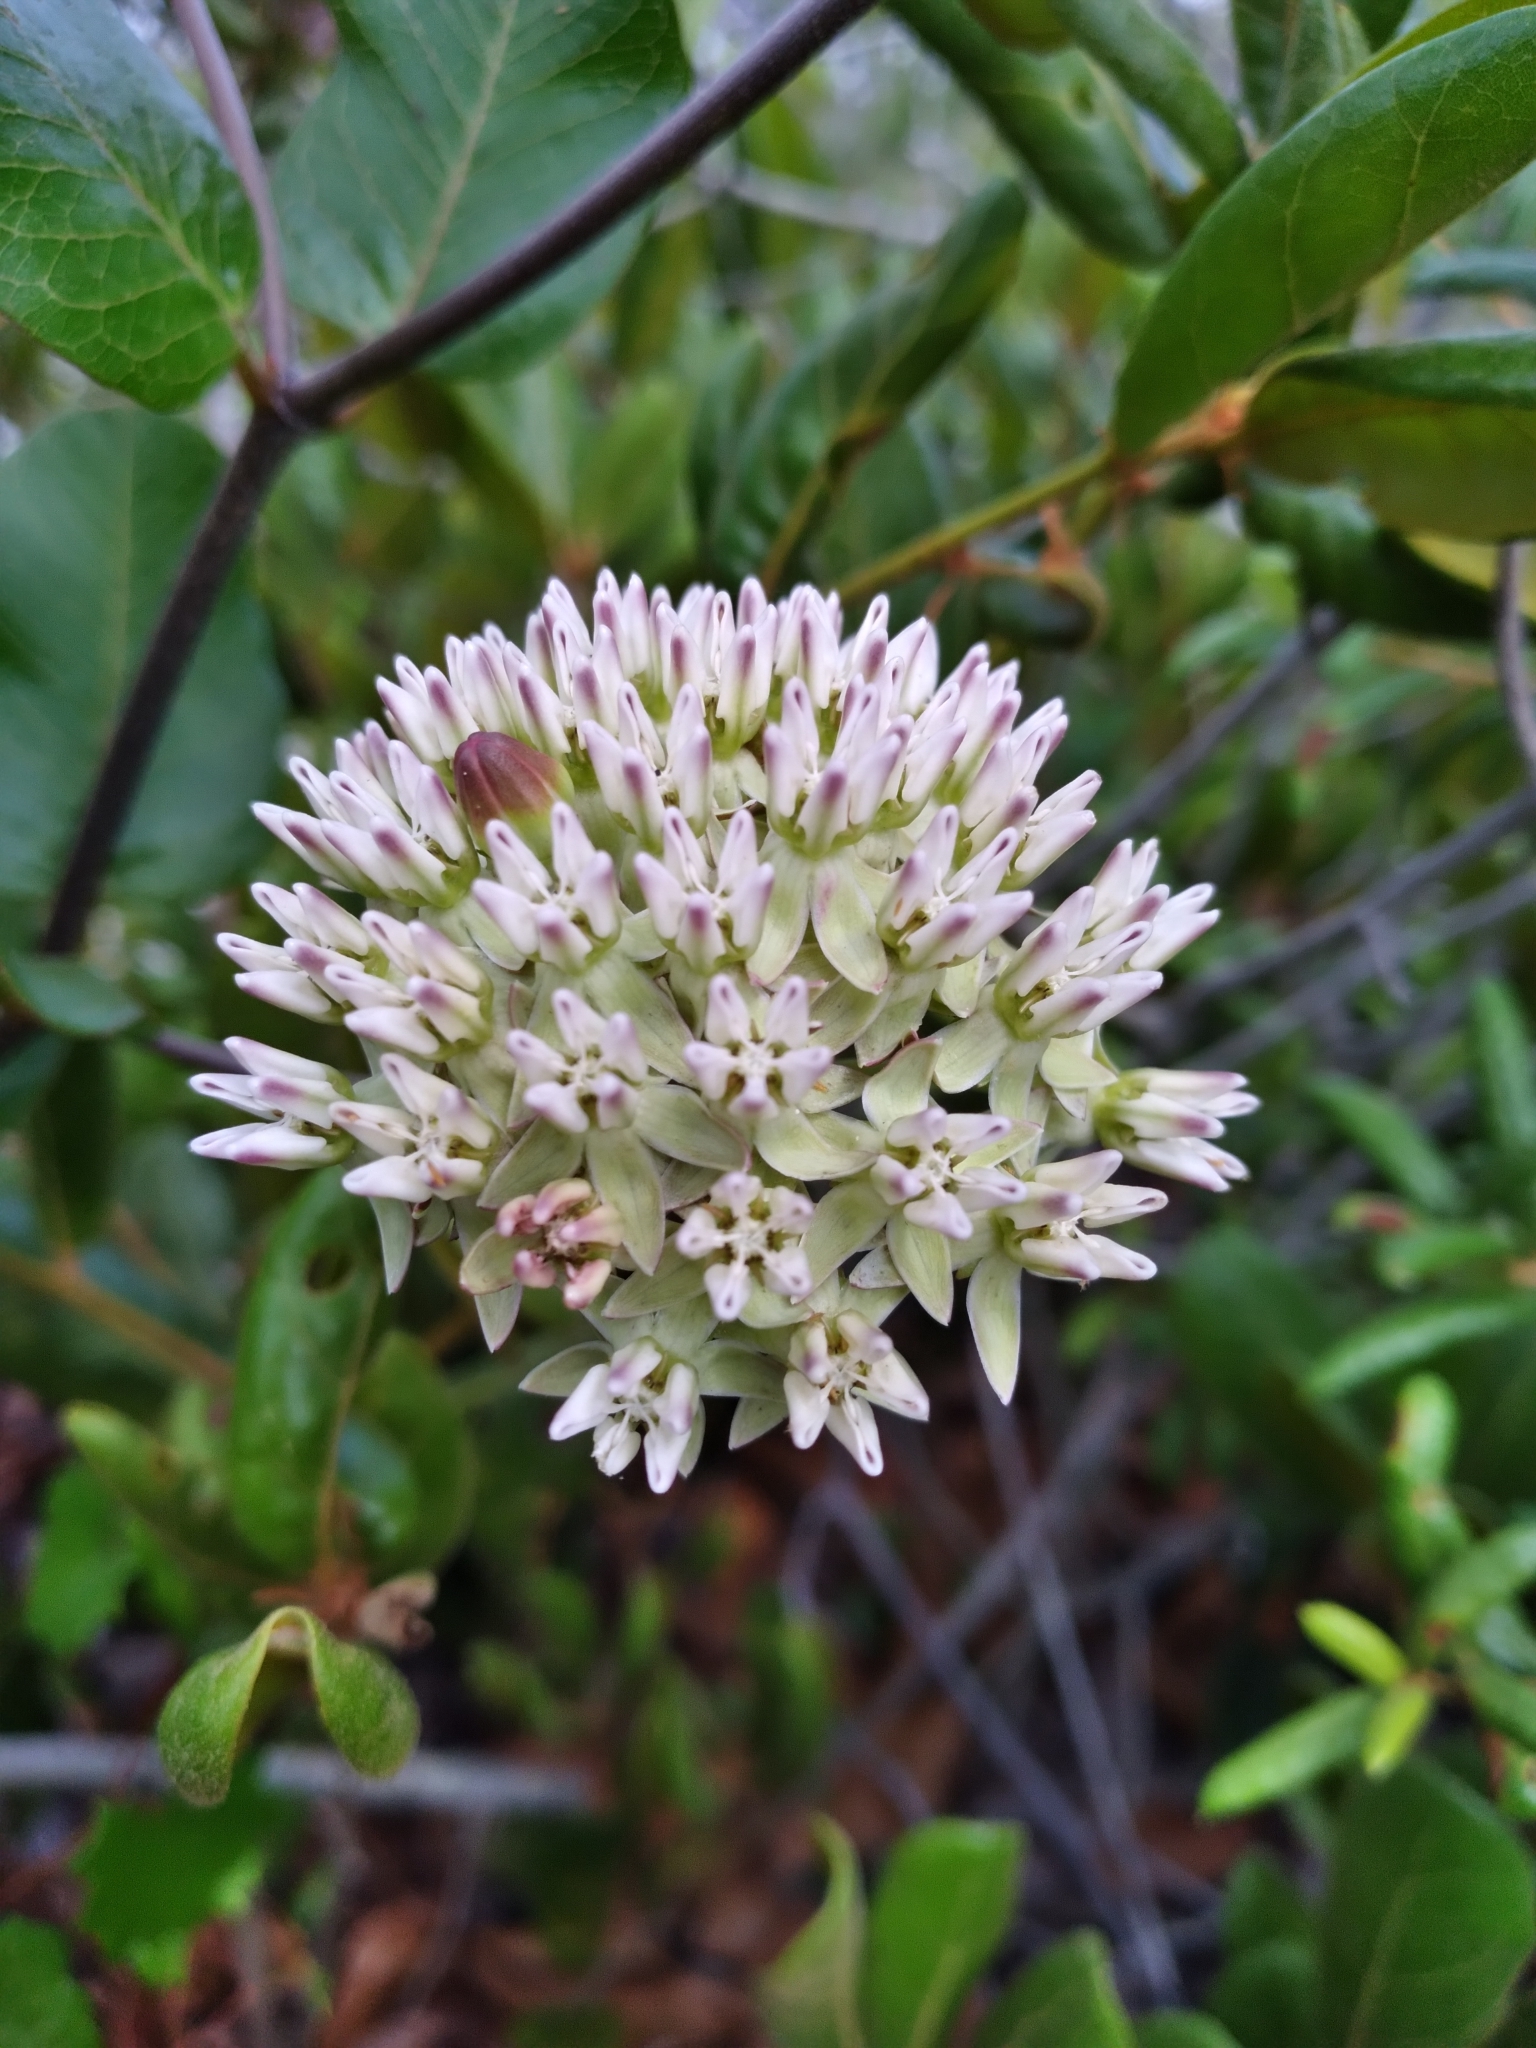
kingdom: Plantae
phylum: Tracheophyta
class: Magnoliopsida
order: Gentianales
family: Apocynaceae
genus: Asclepias
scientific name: Asclepias curtissii
